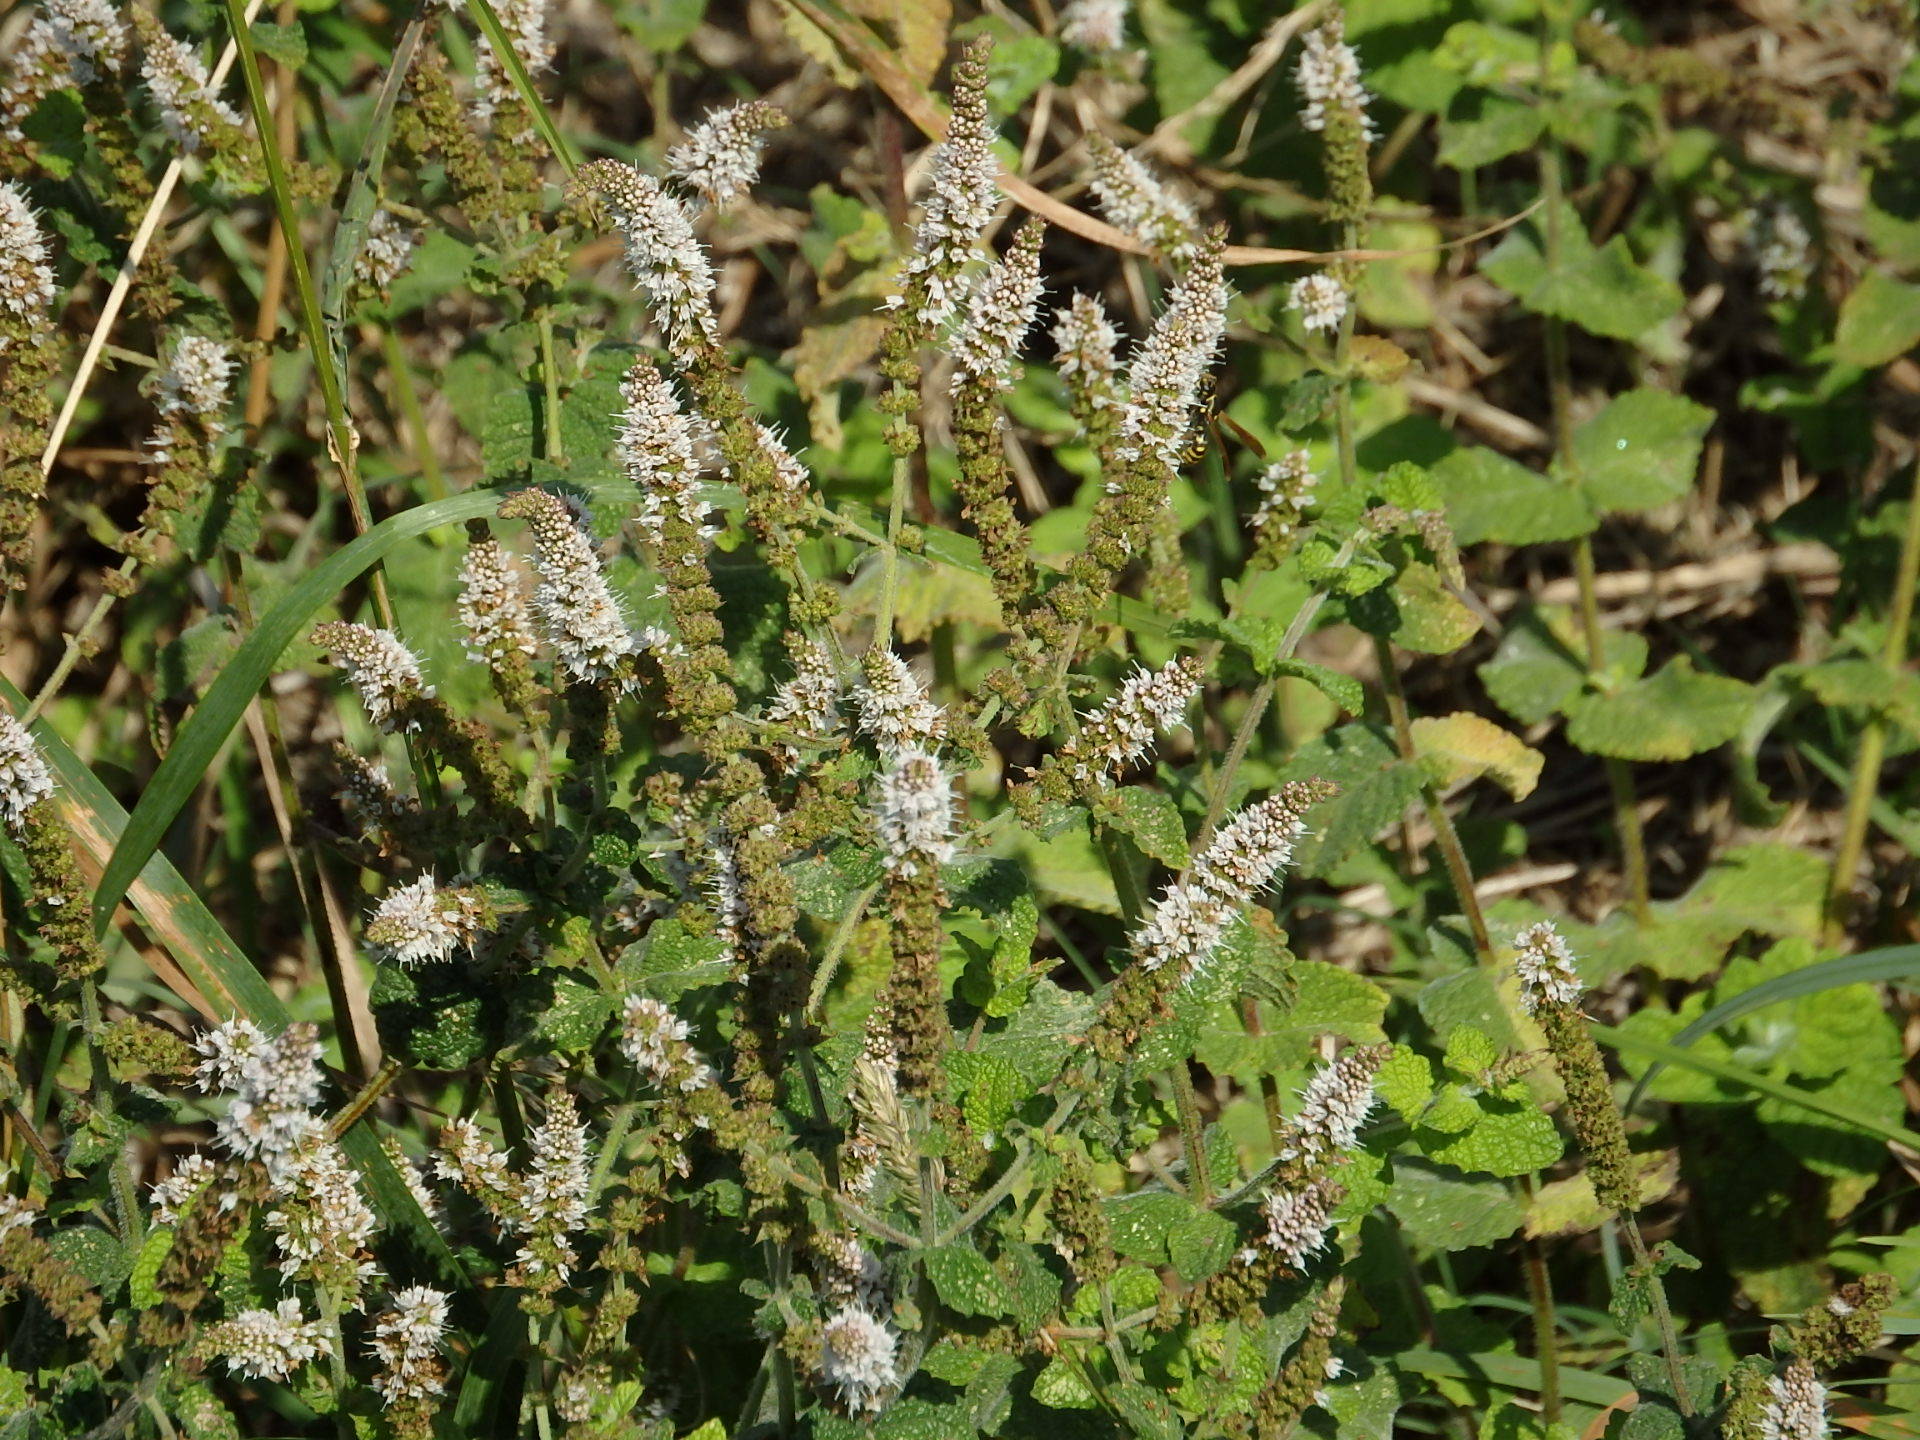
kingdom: Plantae
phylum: Tracheophyta
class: Magnoliopsida
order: Lamiales
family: Lamiaceae
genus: Mentha
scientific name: Mentha suaveolens
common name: Apple mint
